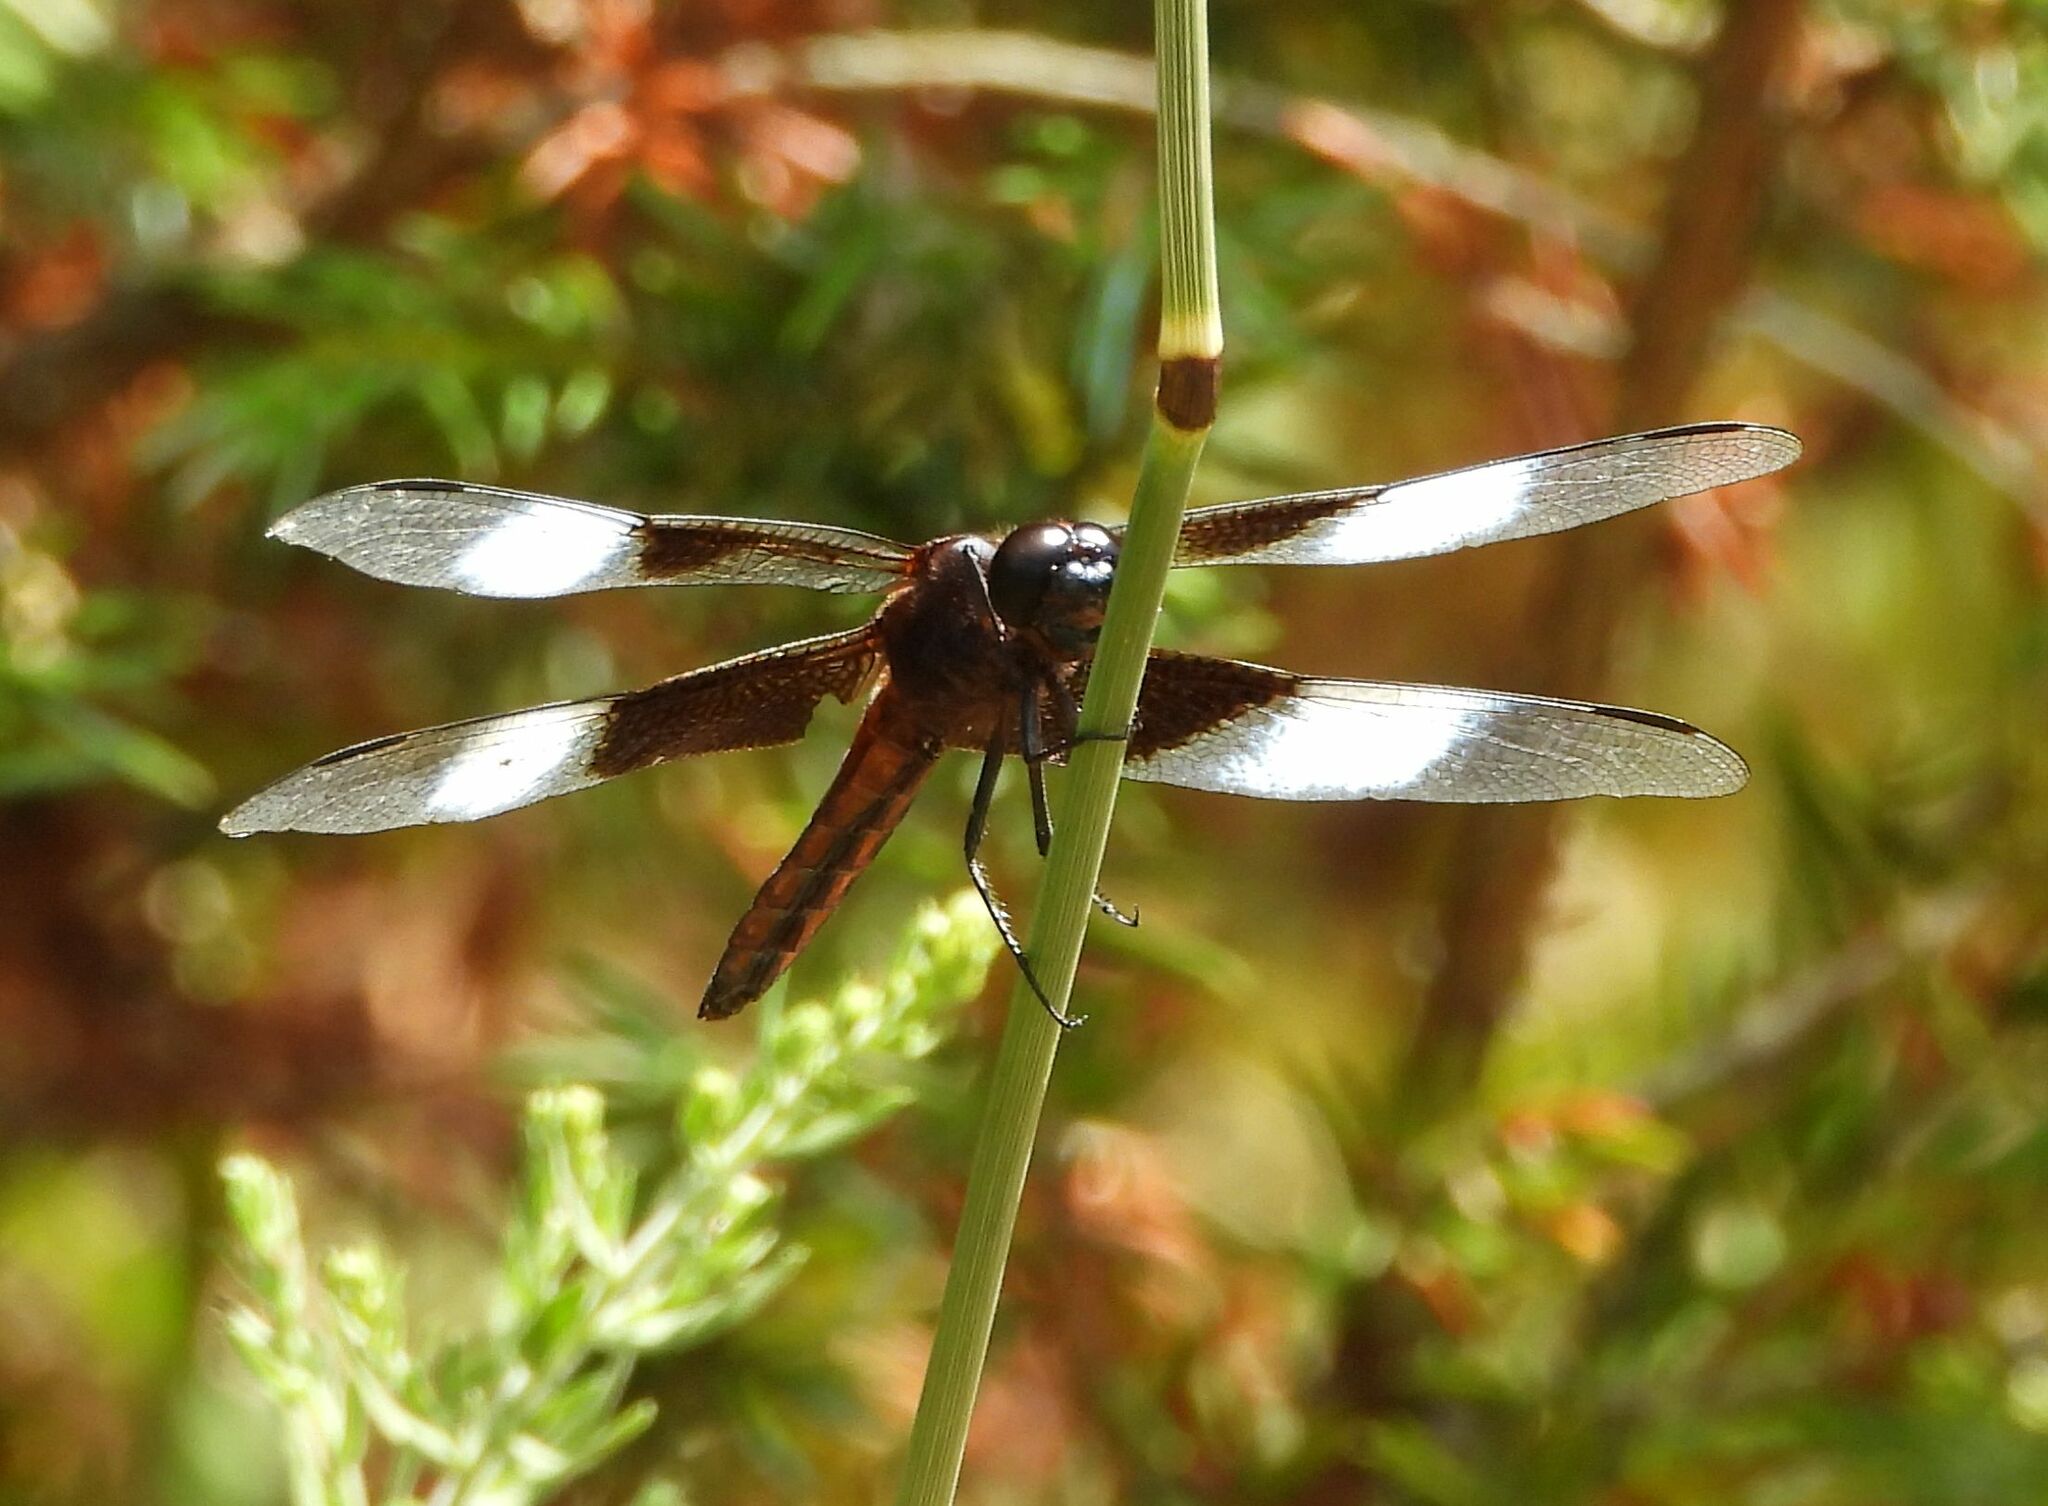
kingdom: Animalia
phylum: Arthropoda
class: Insecta
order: Odonata
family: Libellulidae
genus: Libellula
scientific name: Libellula luctuosa
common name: Widow skimmer
